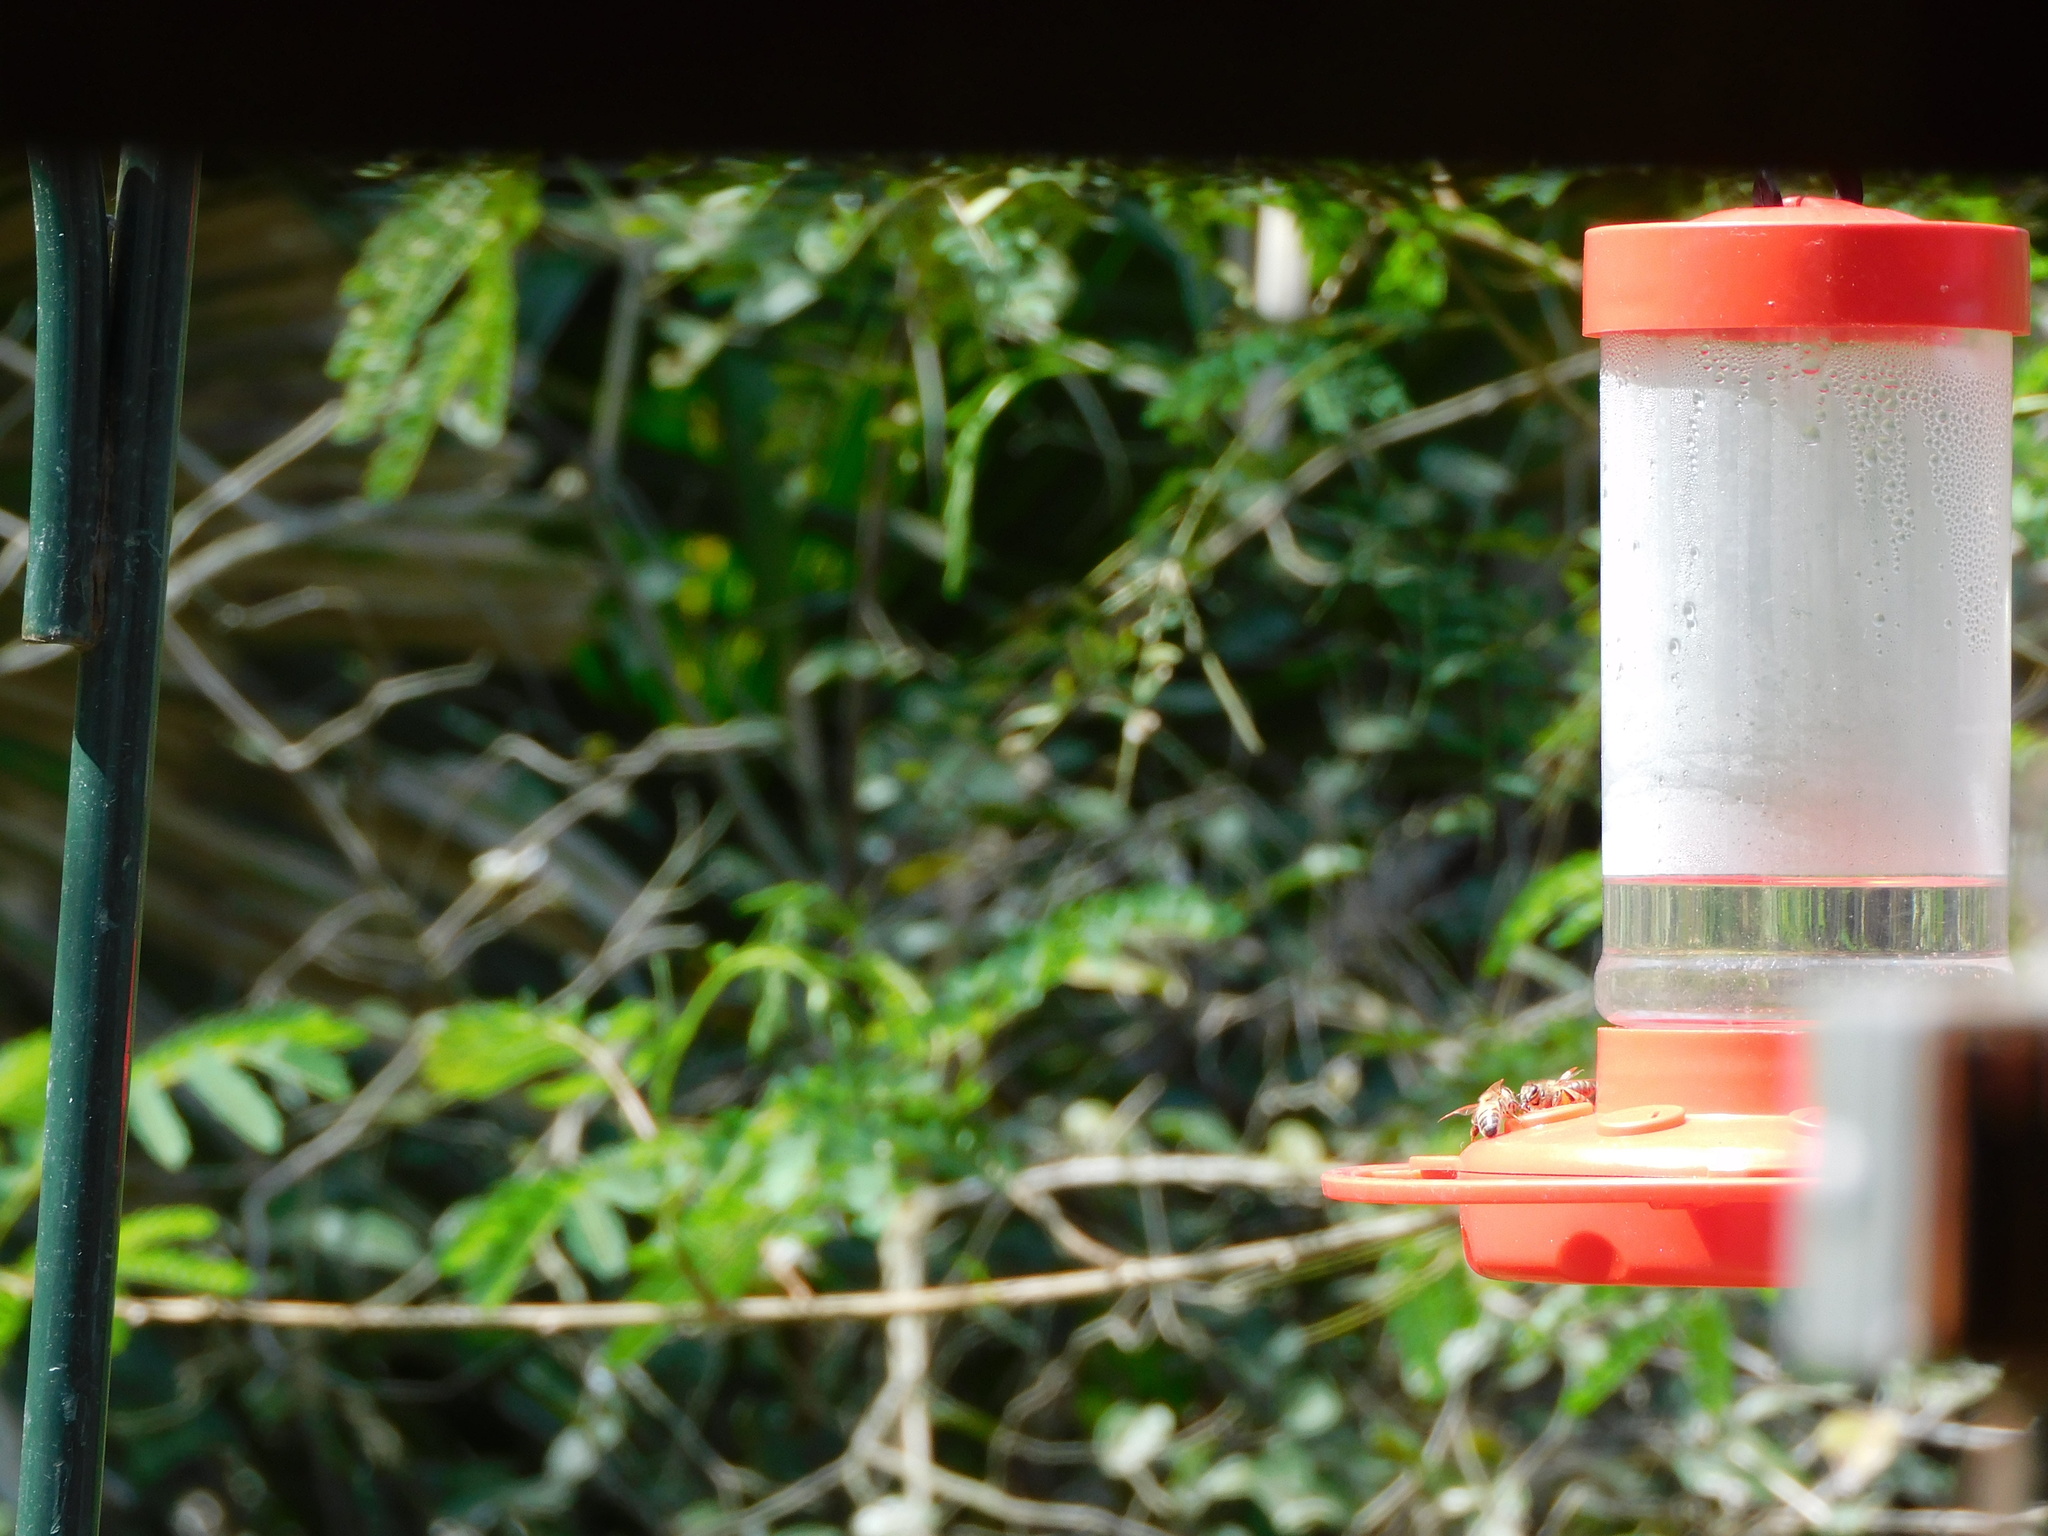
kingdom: Animalia
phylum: Arthropoda
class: Insecta
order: Hymenoptera
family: Apidae
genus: Apis
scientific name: Apis mellifera
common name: Honey bee
